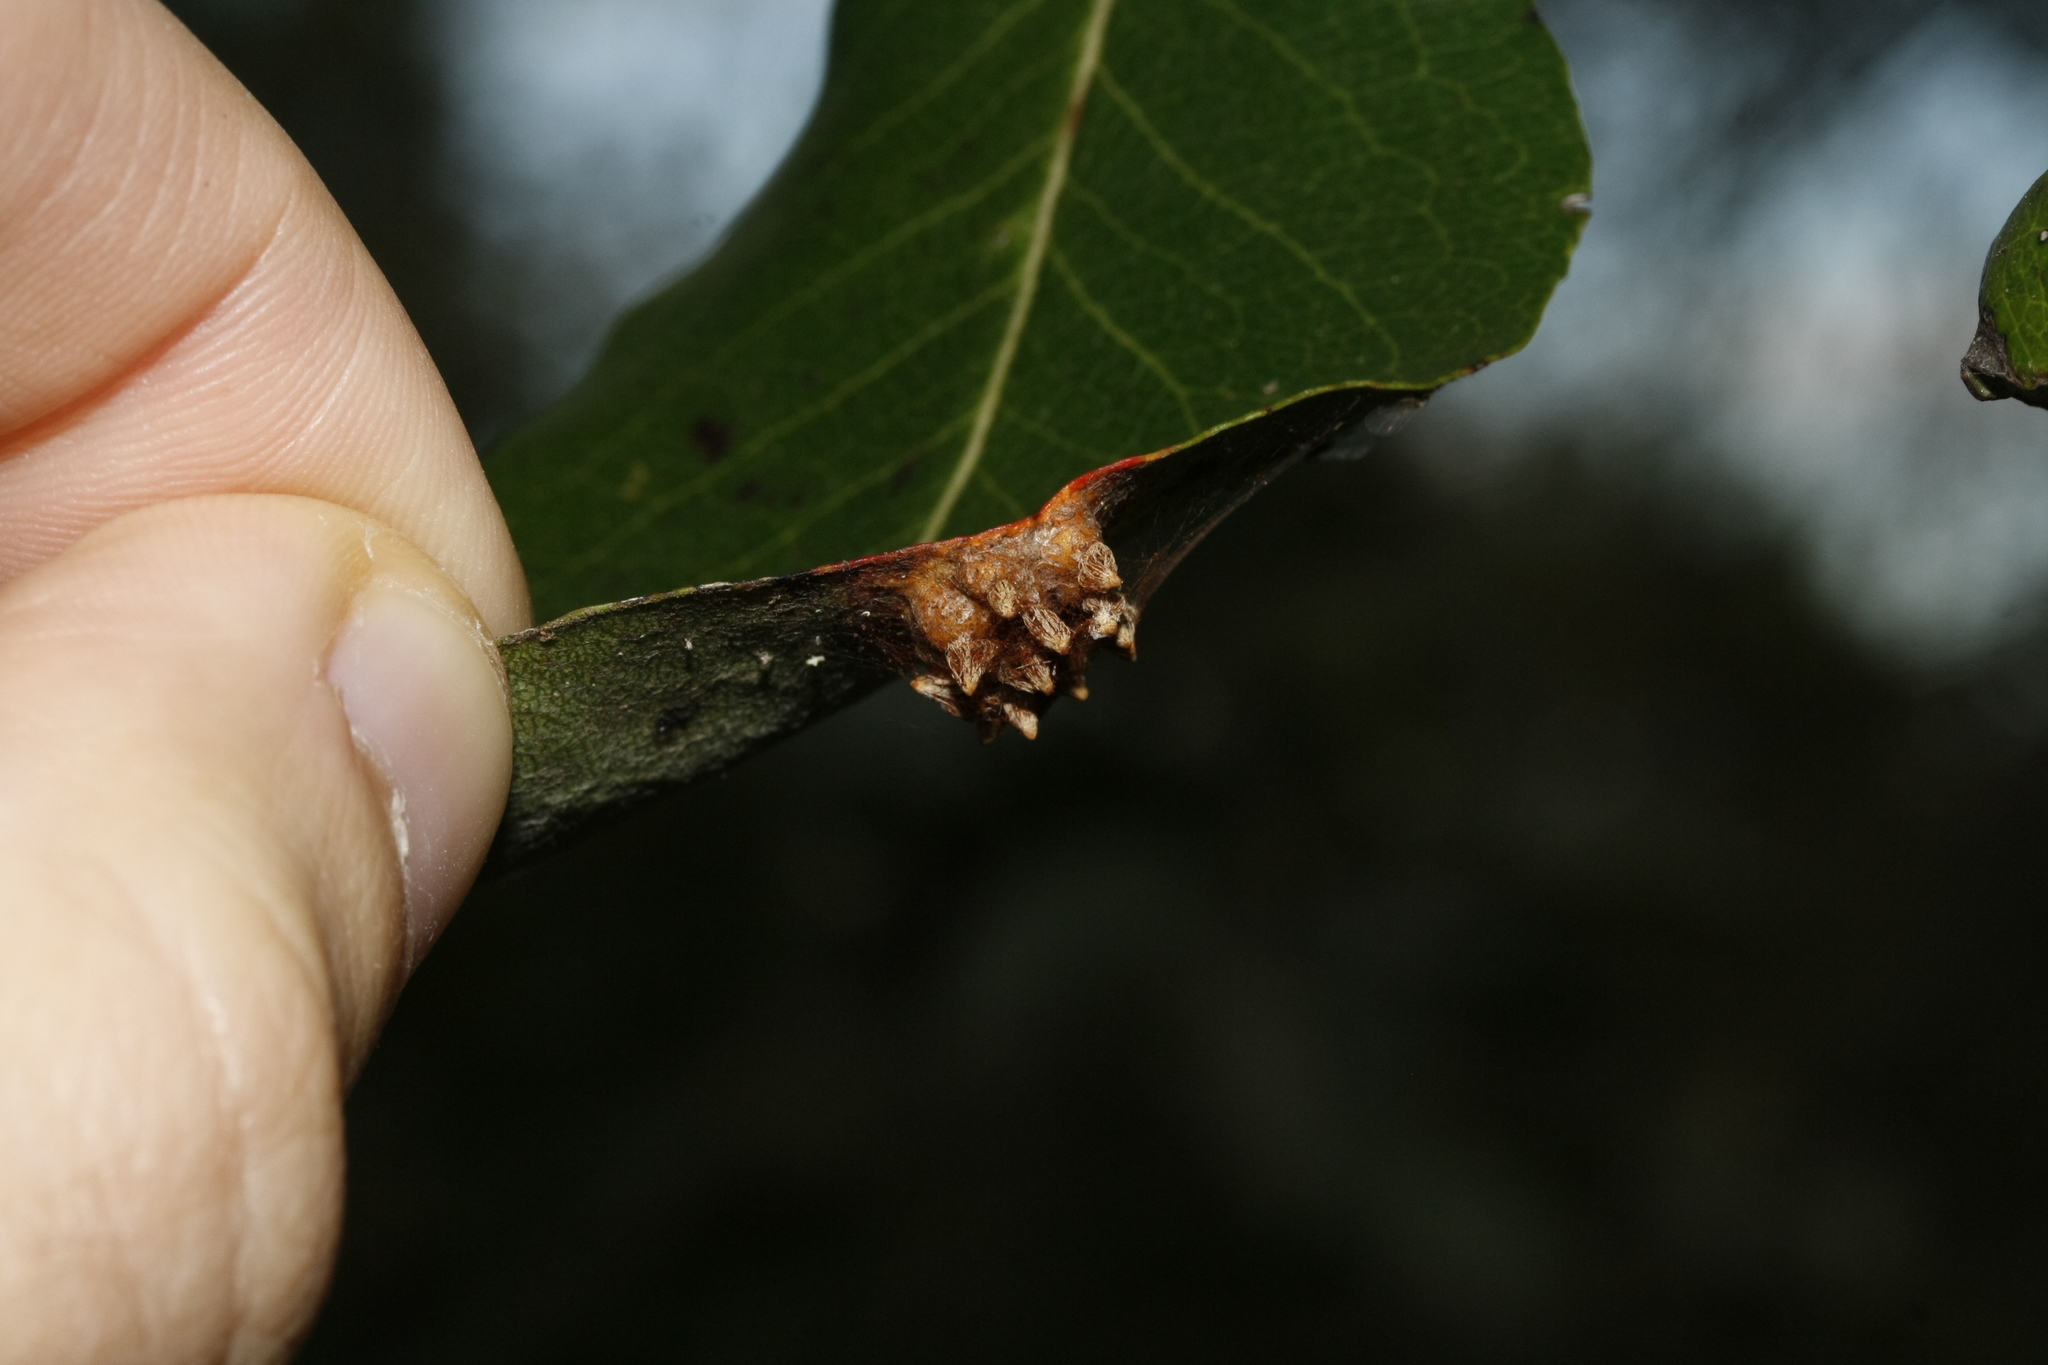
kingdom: Fungi
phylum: Basidiomycota
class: Pucciniomycetes
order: Pucciniales
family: Gymnosporangiaceae
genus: Gymnosporangium
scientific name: Gymnosporangium sabinae
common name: Pear trellis rust fungus
